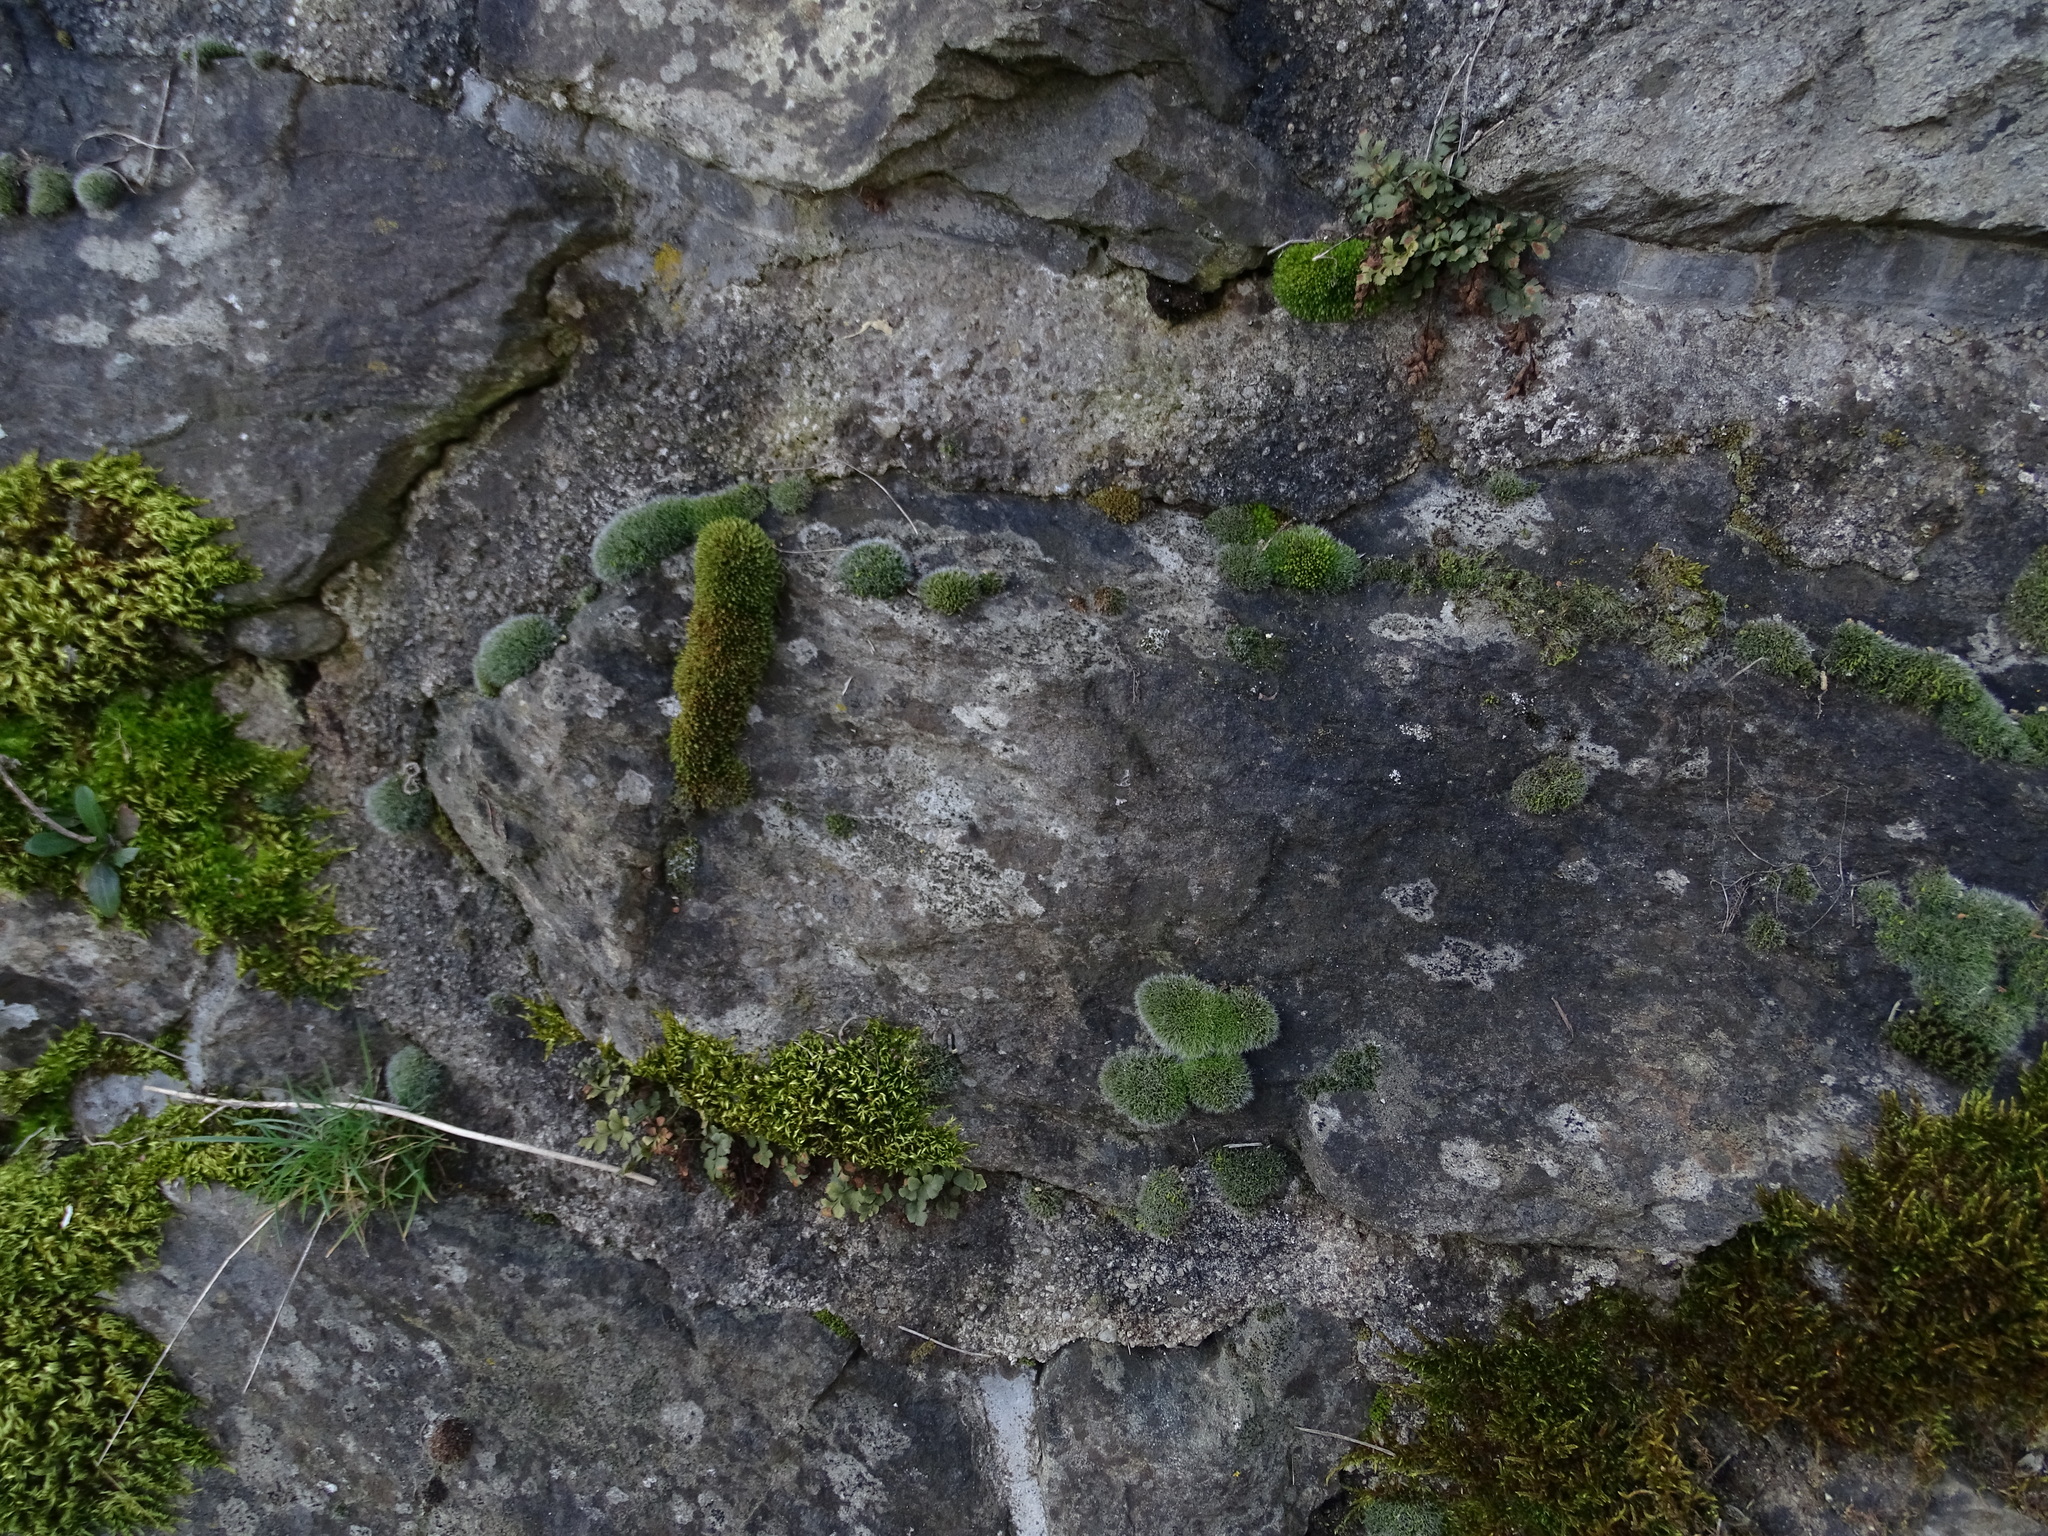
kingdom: Plantae
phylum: Bryophyta
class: Bryopsida
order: Grimmiales
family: Grimmiaceae
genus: Grimmia
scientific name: Grimmia pulvinata
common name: Grey-cushioned grimmia
